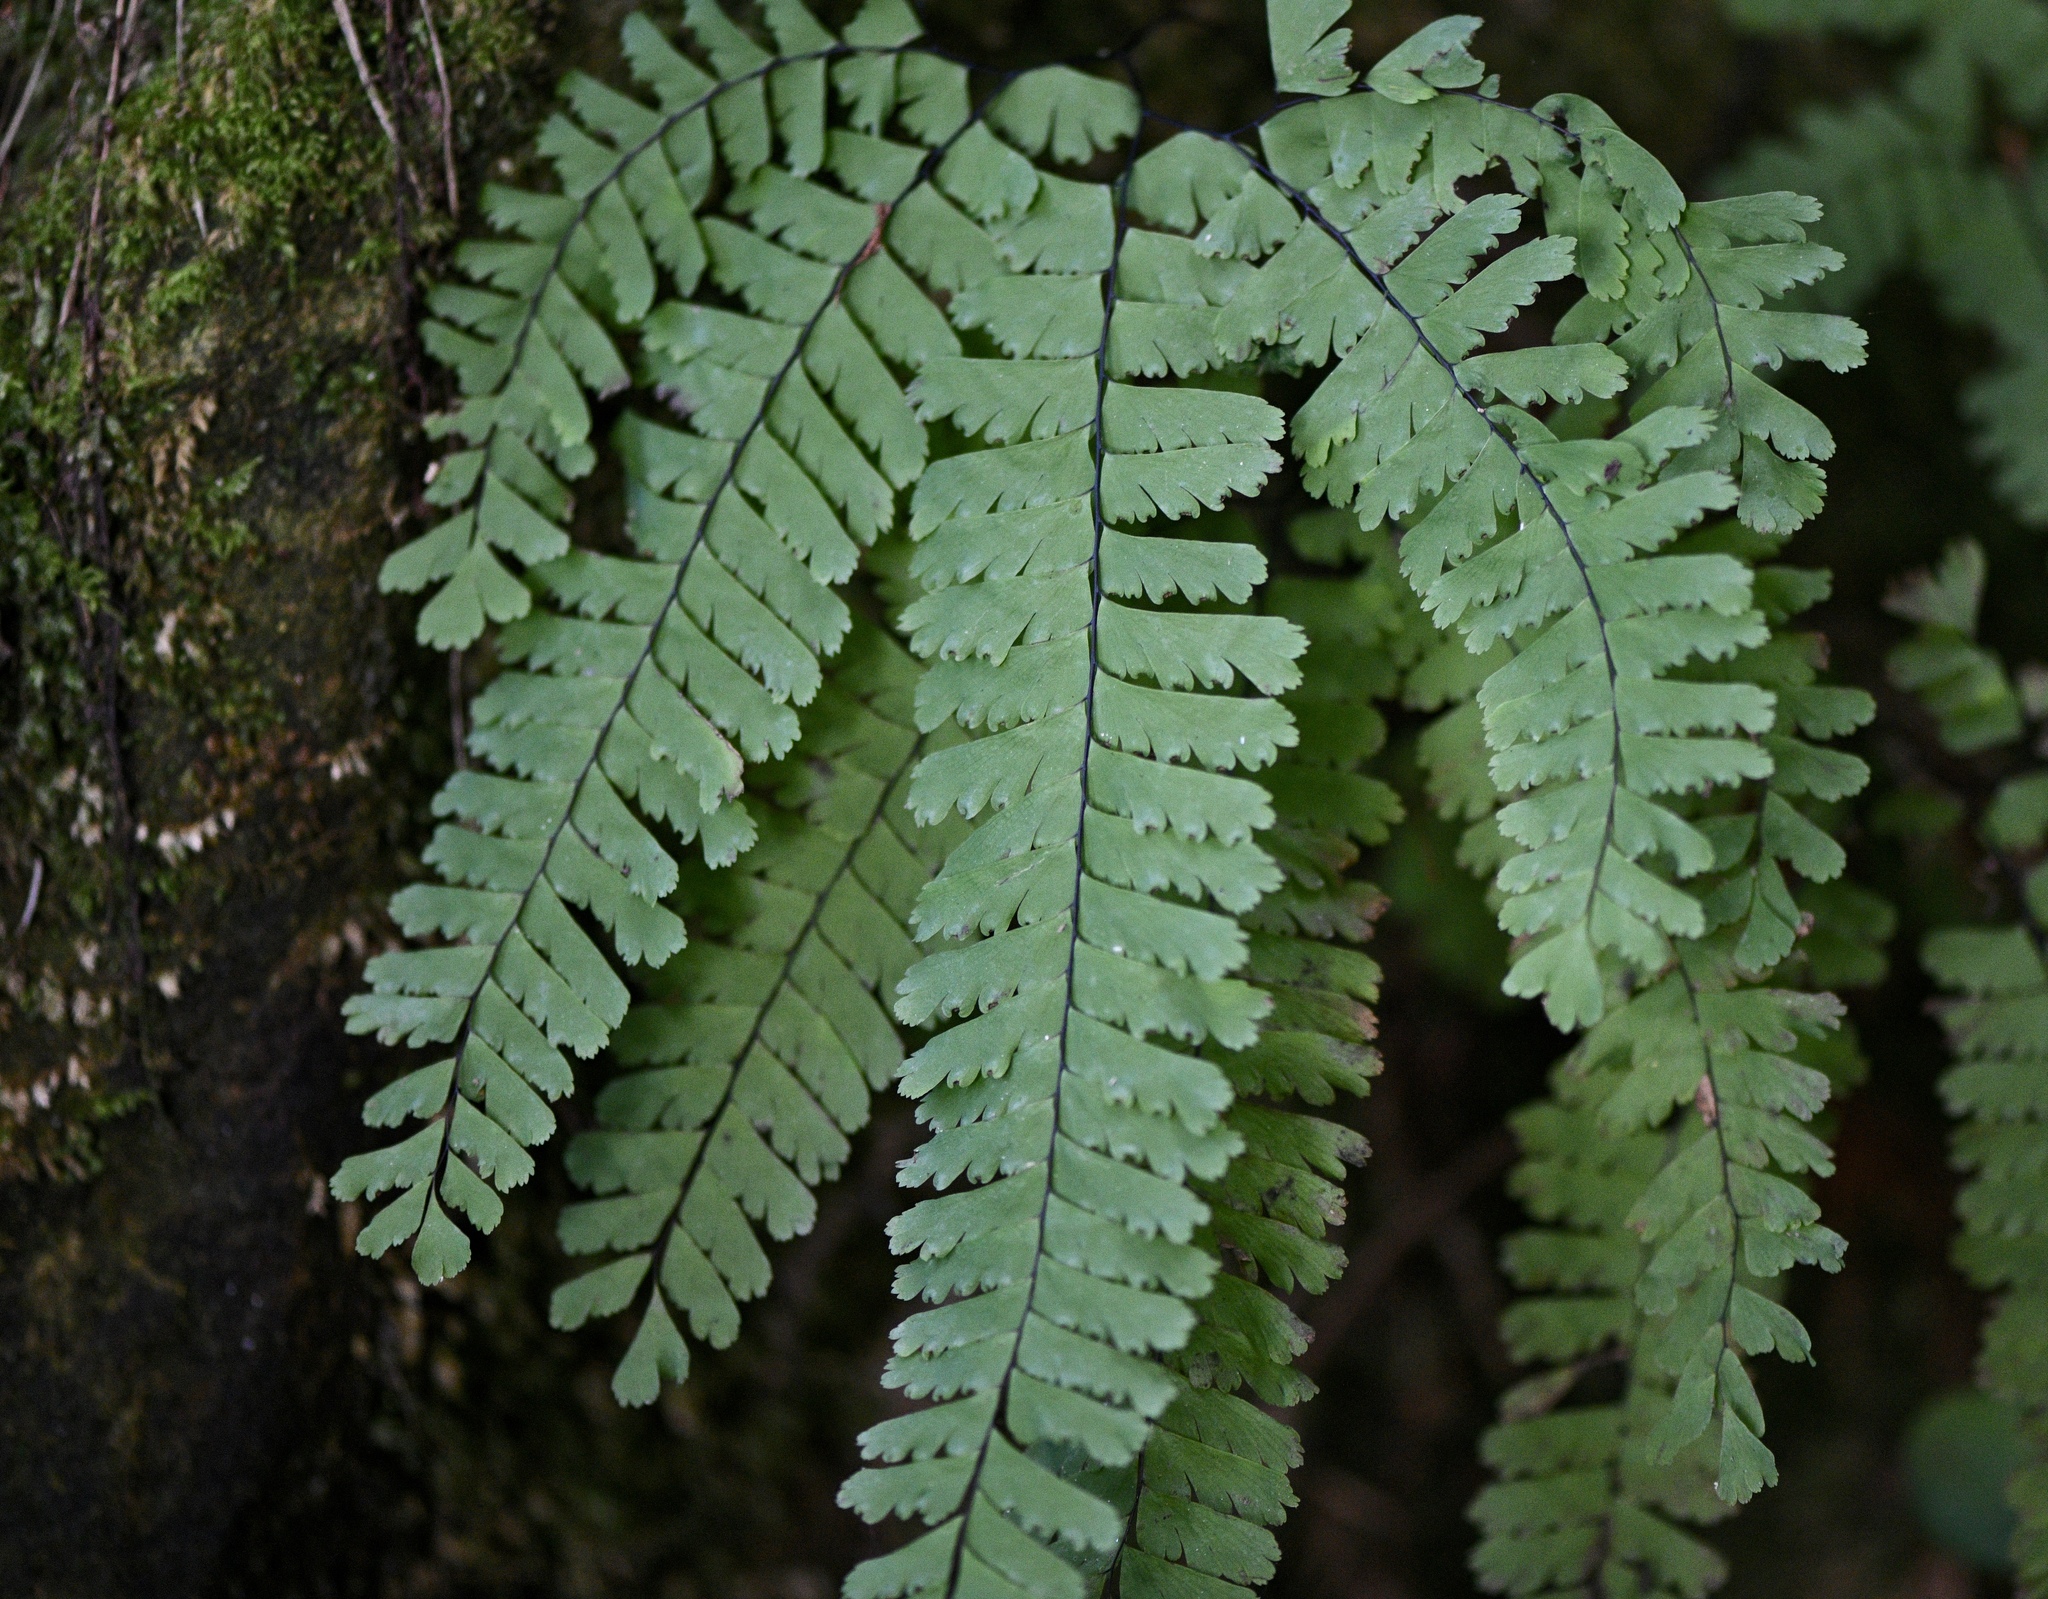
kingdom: Plantae
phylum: Tracheophyta
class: Polypodiopsida
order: Polypodiales
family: Pteridaceae
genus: Adiantum
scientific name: Adiantum aleuticum
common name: Aleutian maidenhair fern
